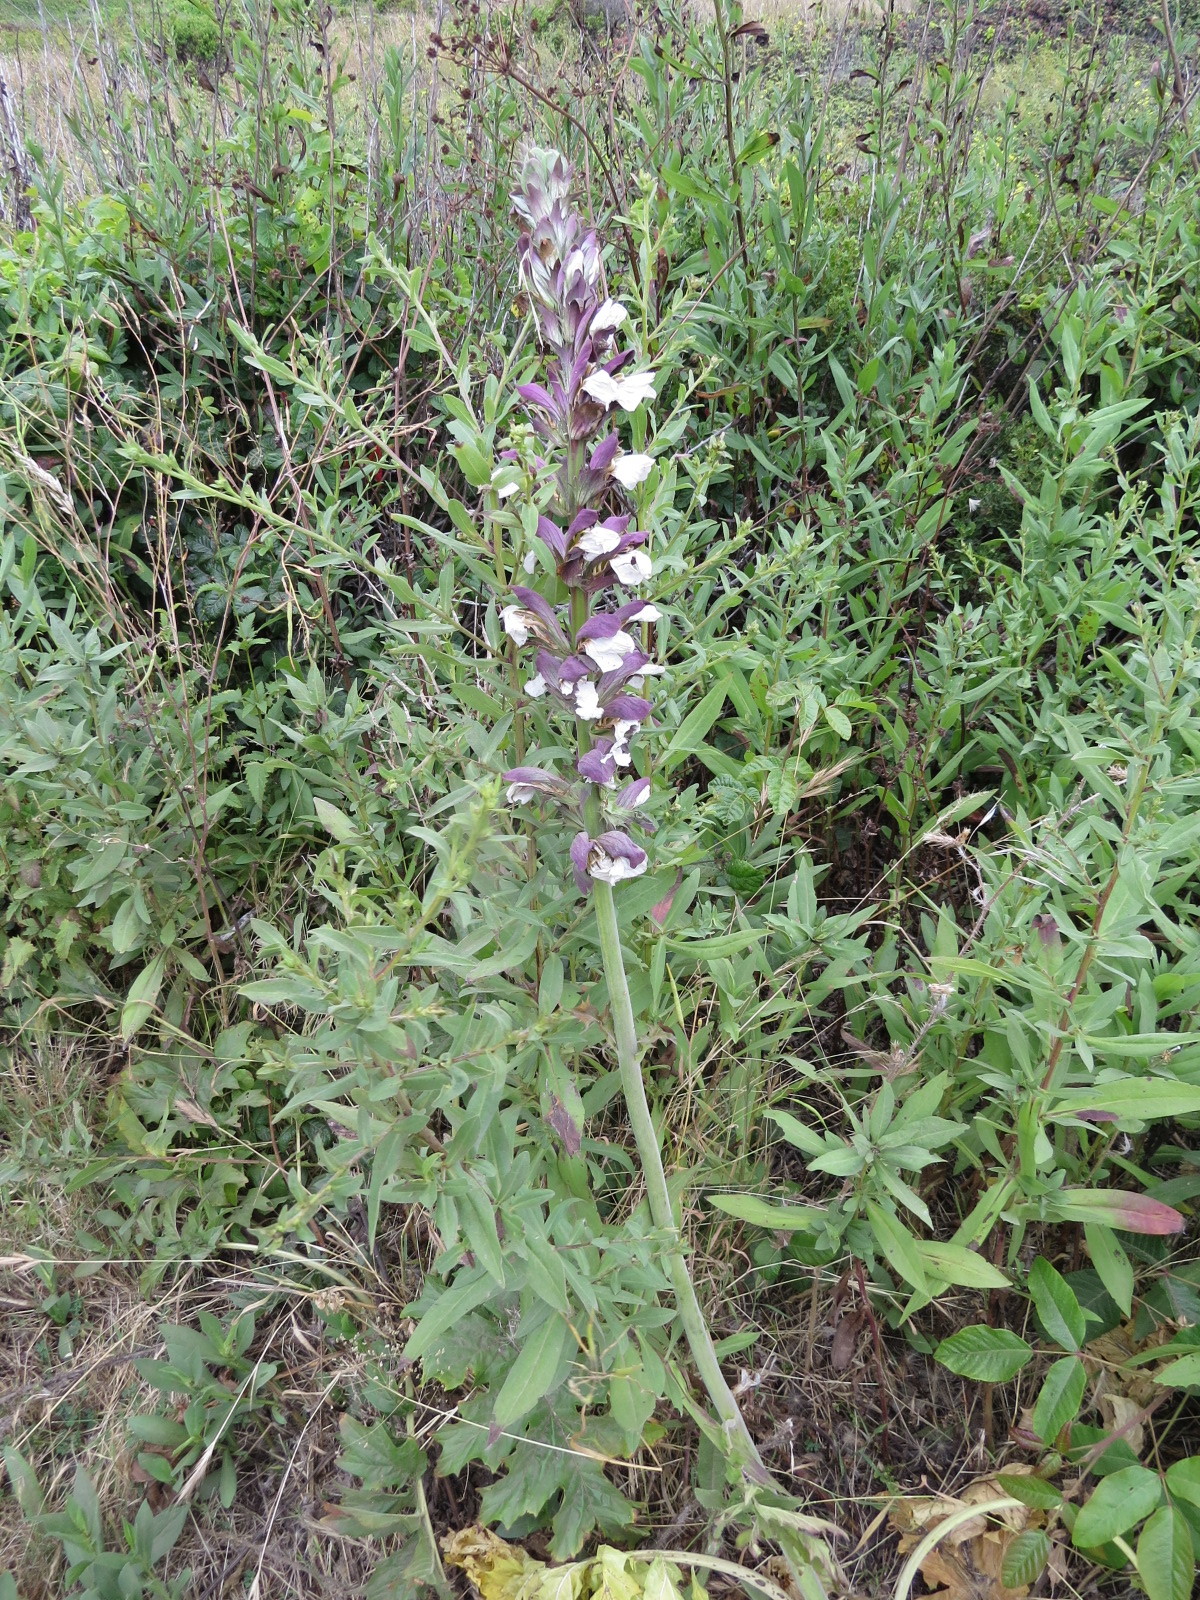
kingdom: Plantae
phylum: Tracheophyta
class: Magnoliopsida
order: Lamiales
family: Acanthaceae
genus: Acanthus
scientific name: Acanthus mollis
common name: Bear's-breech
